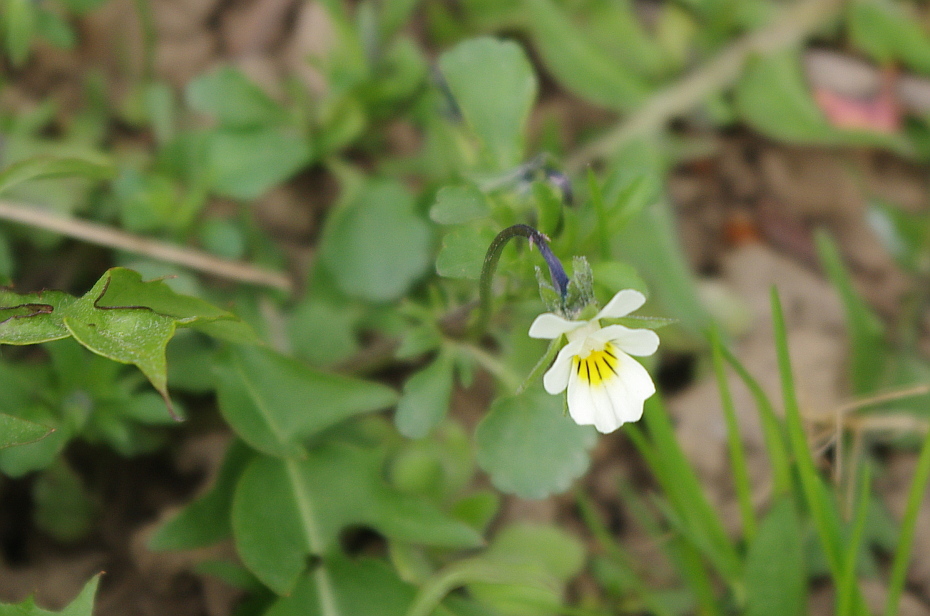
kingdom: Plantae
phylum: Tracheophyta
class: Magnoliopsida
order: Malpighiales
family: Violaceae
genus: Viola
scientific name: Viola arvensis
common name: Field pansy
